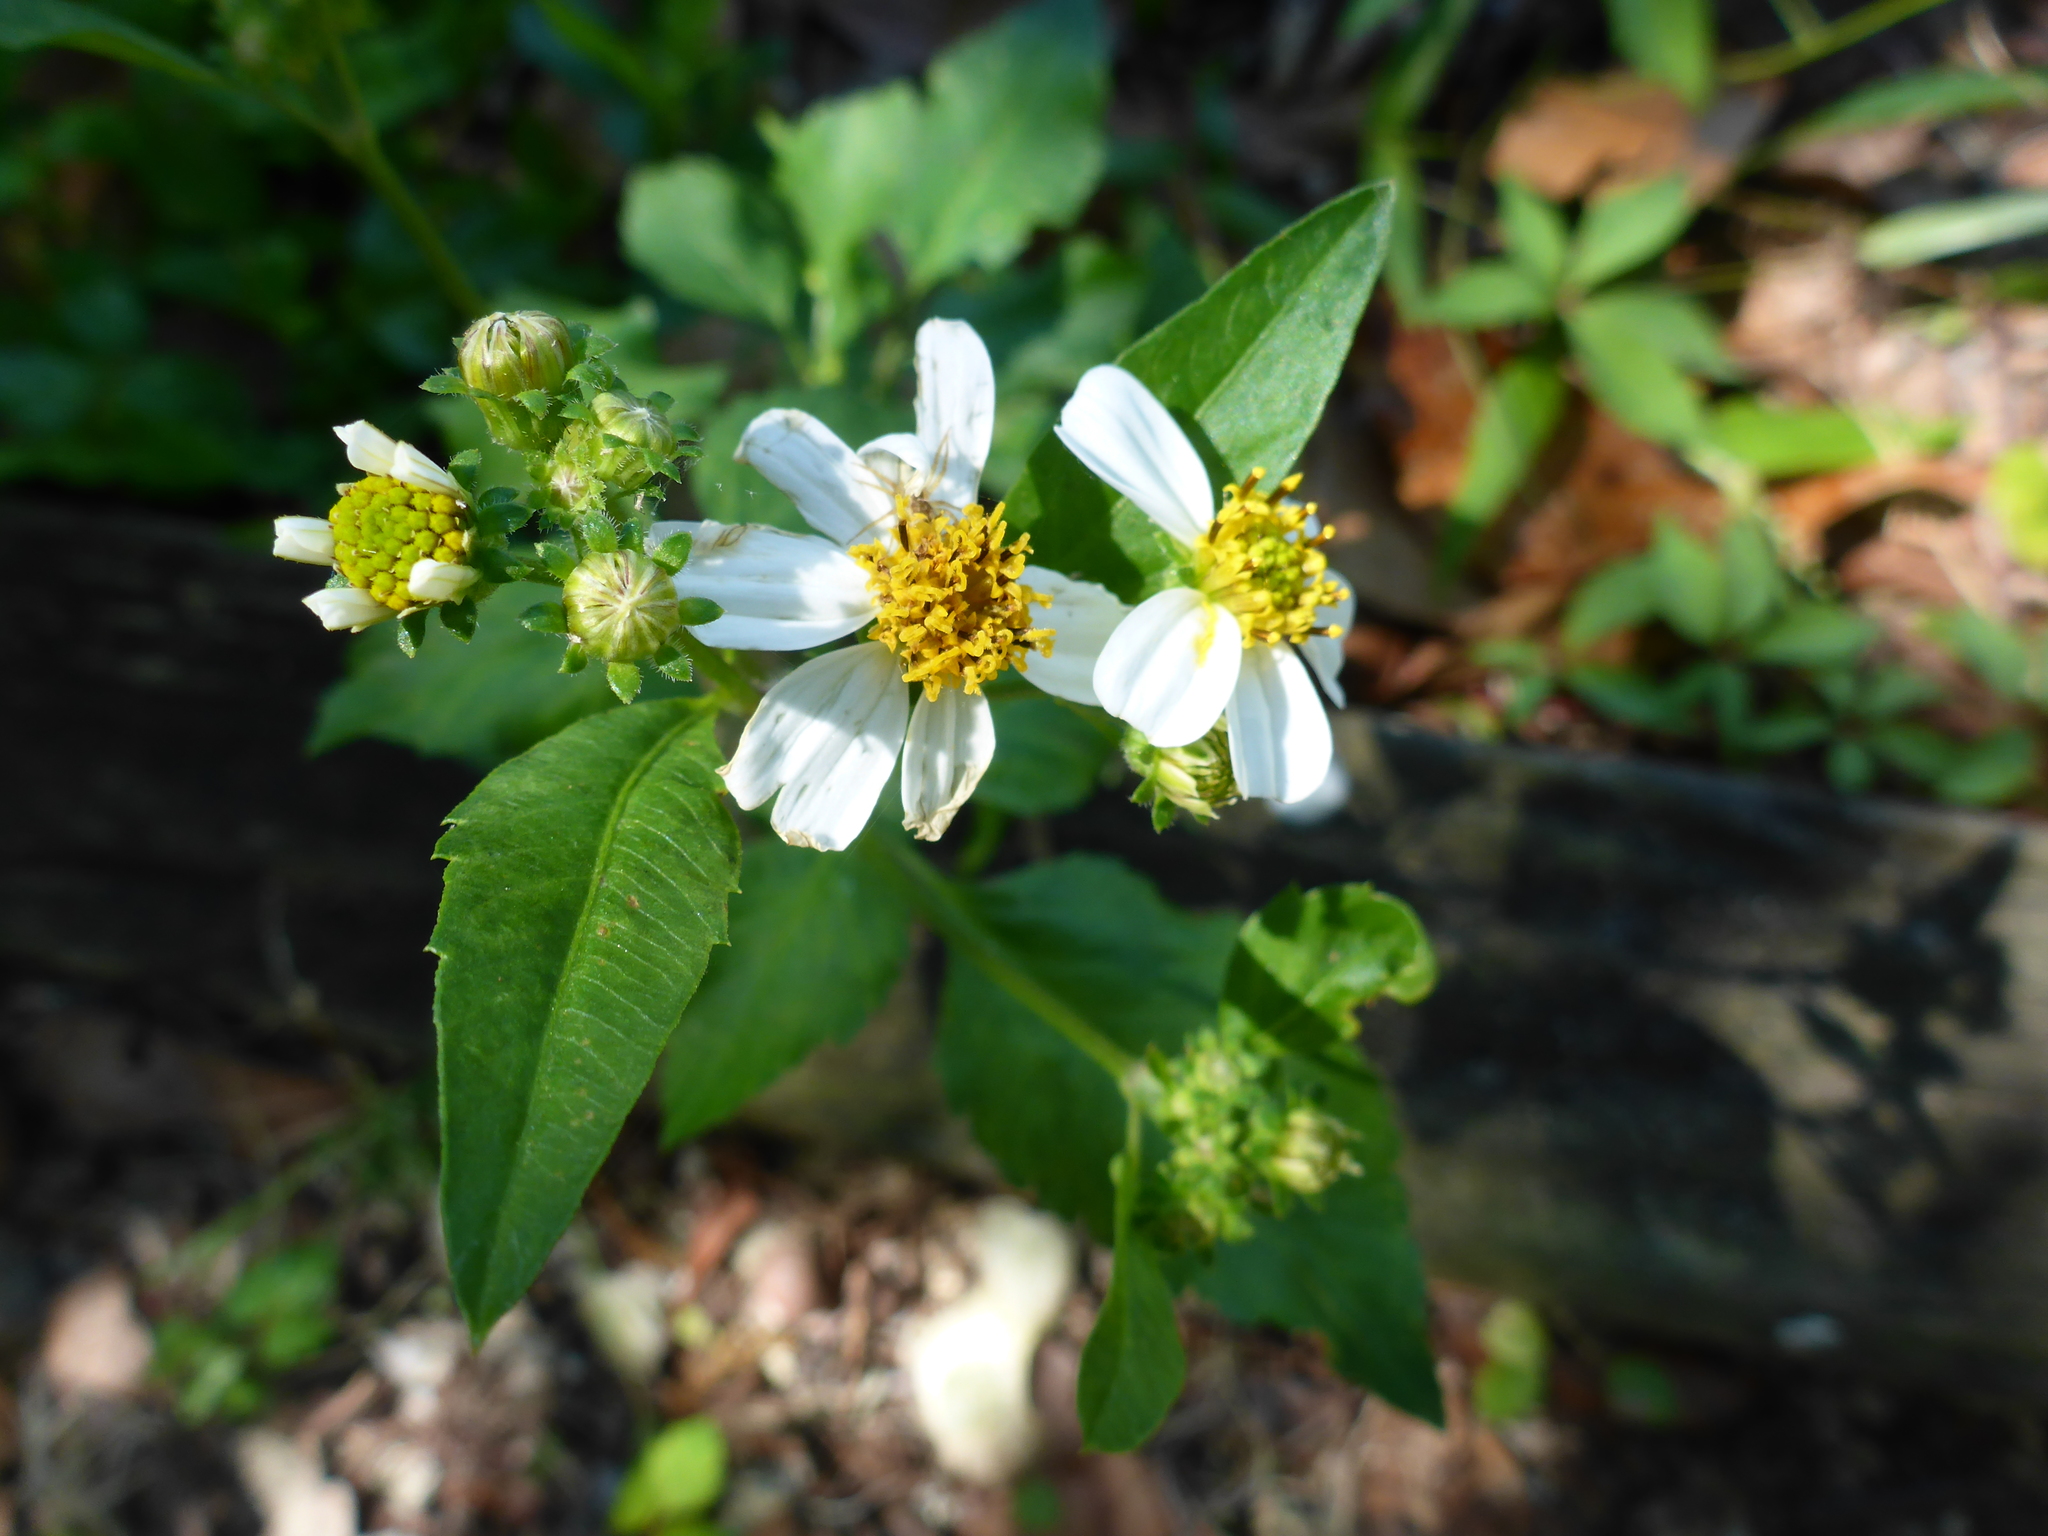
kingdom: Plantae
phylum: Tracheophyta
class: Magnoliopsida
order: Asterales
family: Asteraceae
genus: Bidens
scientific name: Bidens alba
